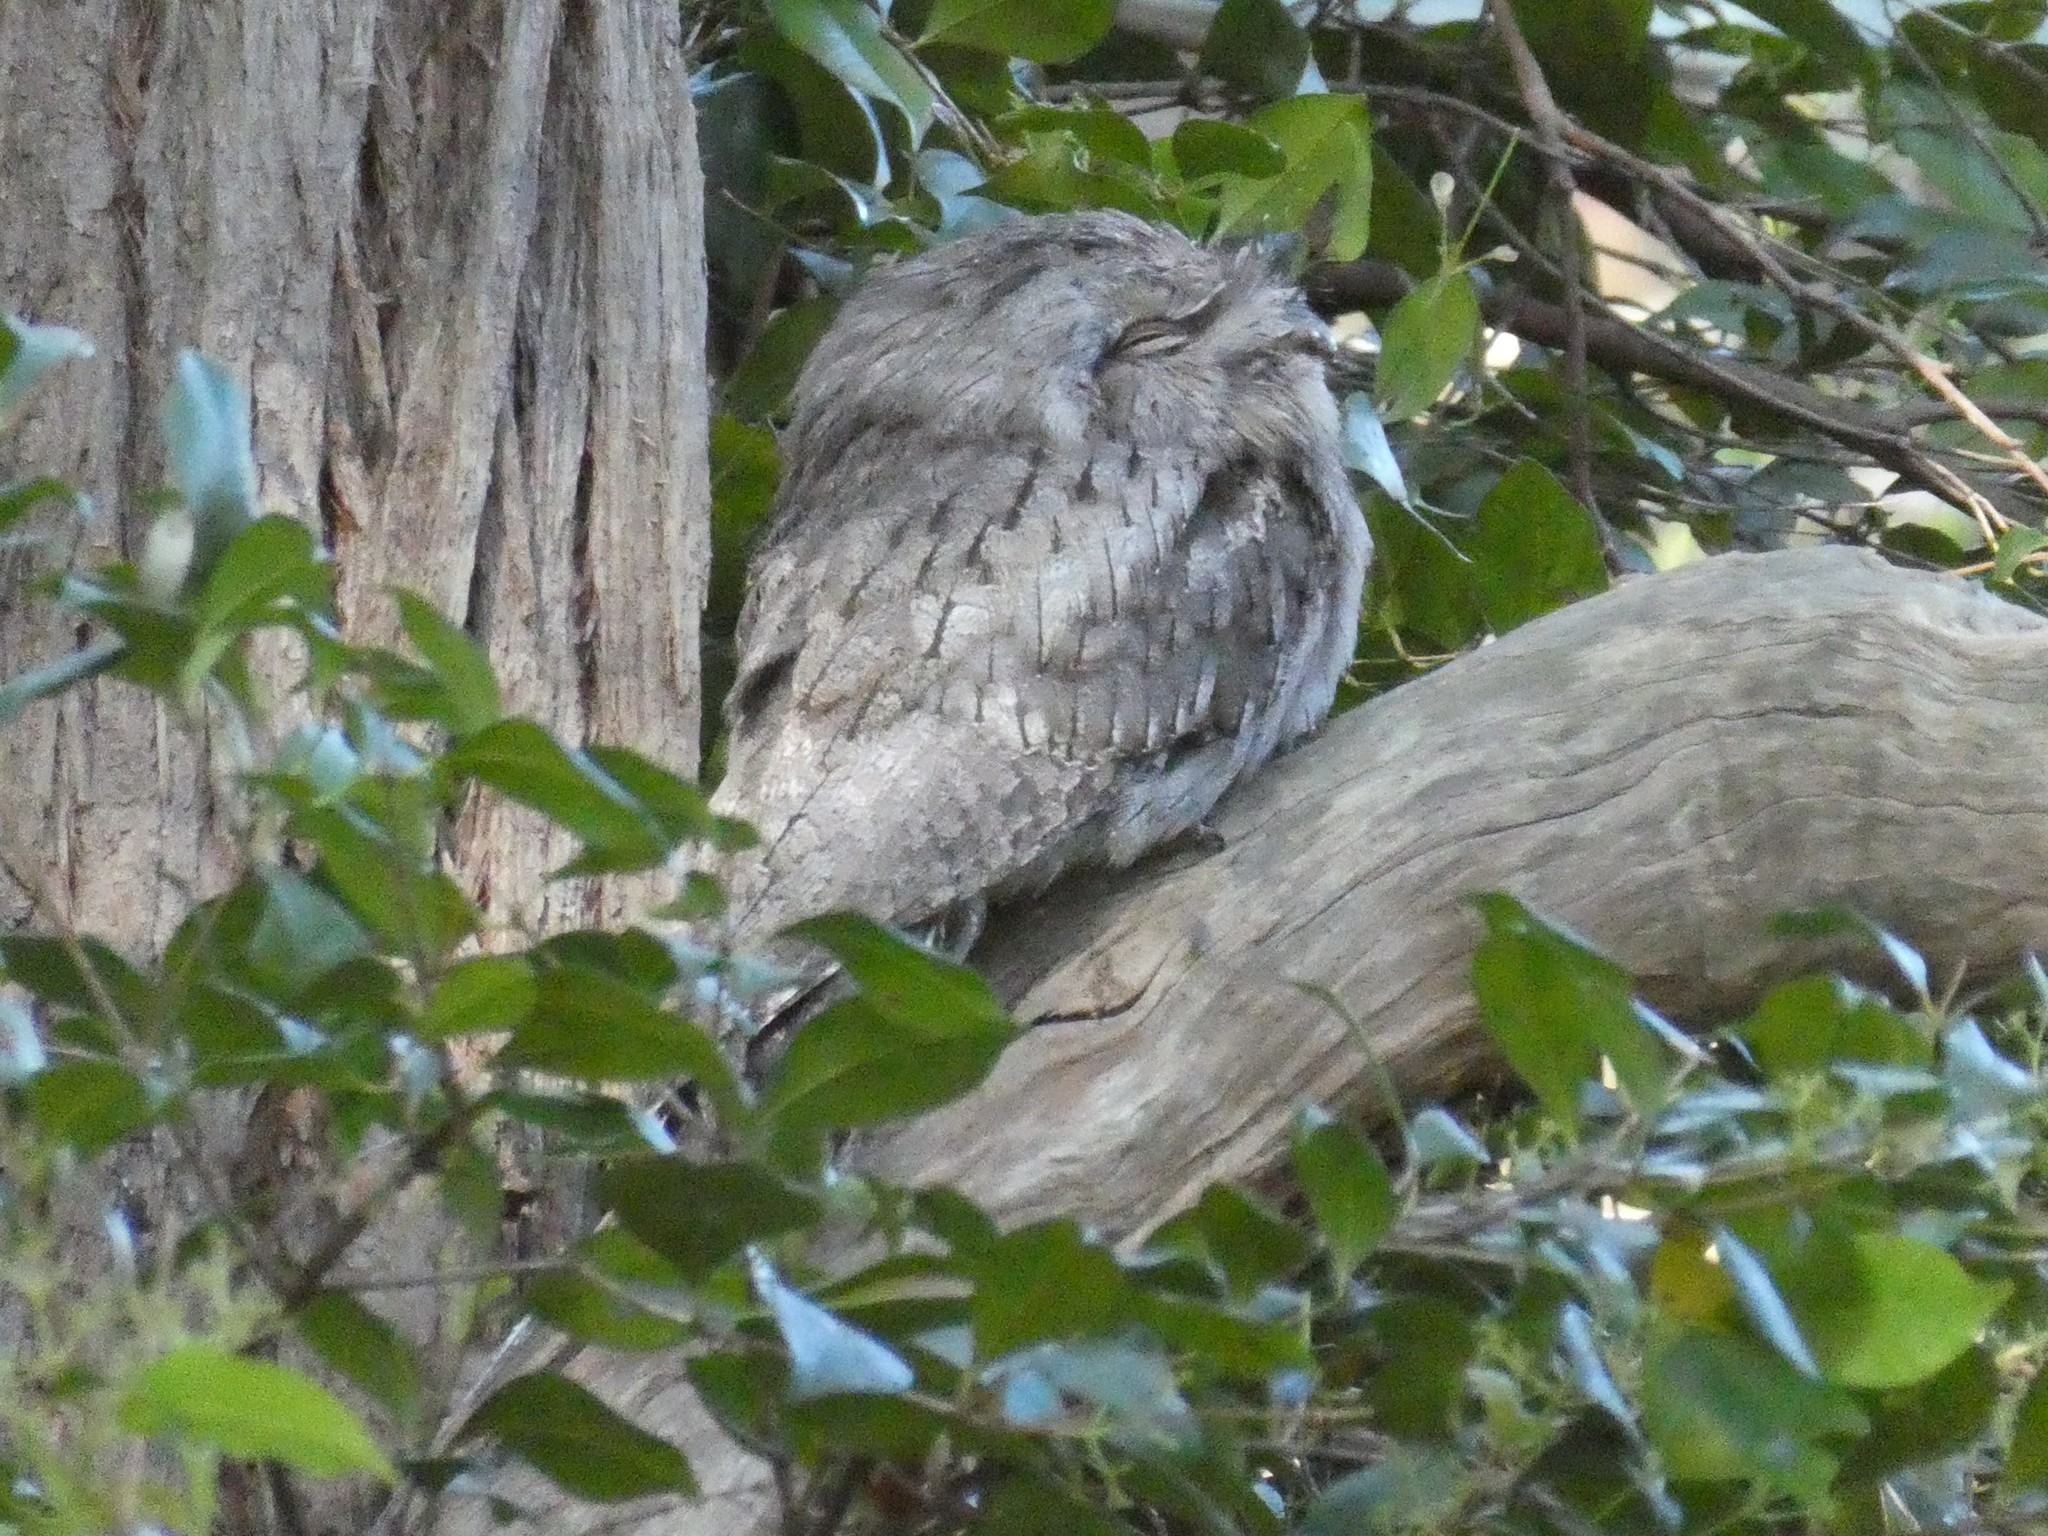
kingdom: Animalia
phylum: Chordata
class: Aves
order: Caprimulgiformes
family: Podargidae
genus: Podargus
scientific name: Podargus strigoides
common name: Tawny frogmouth
